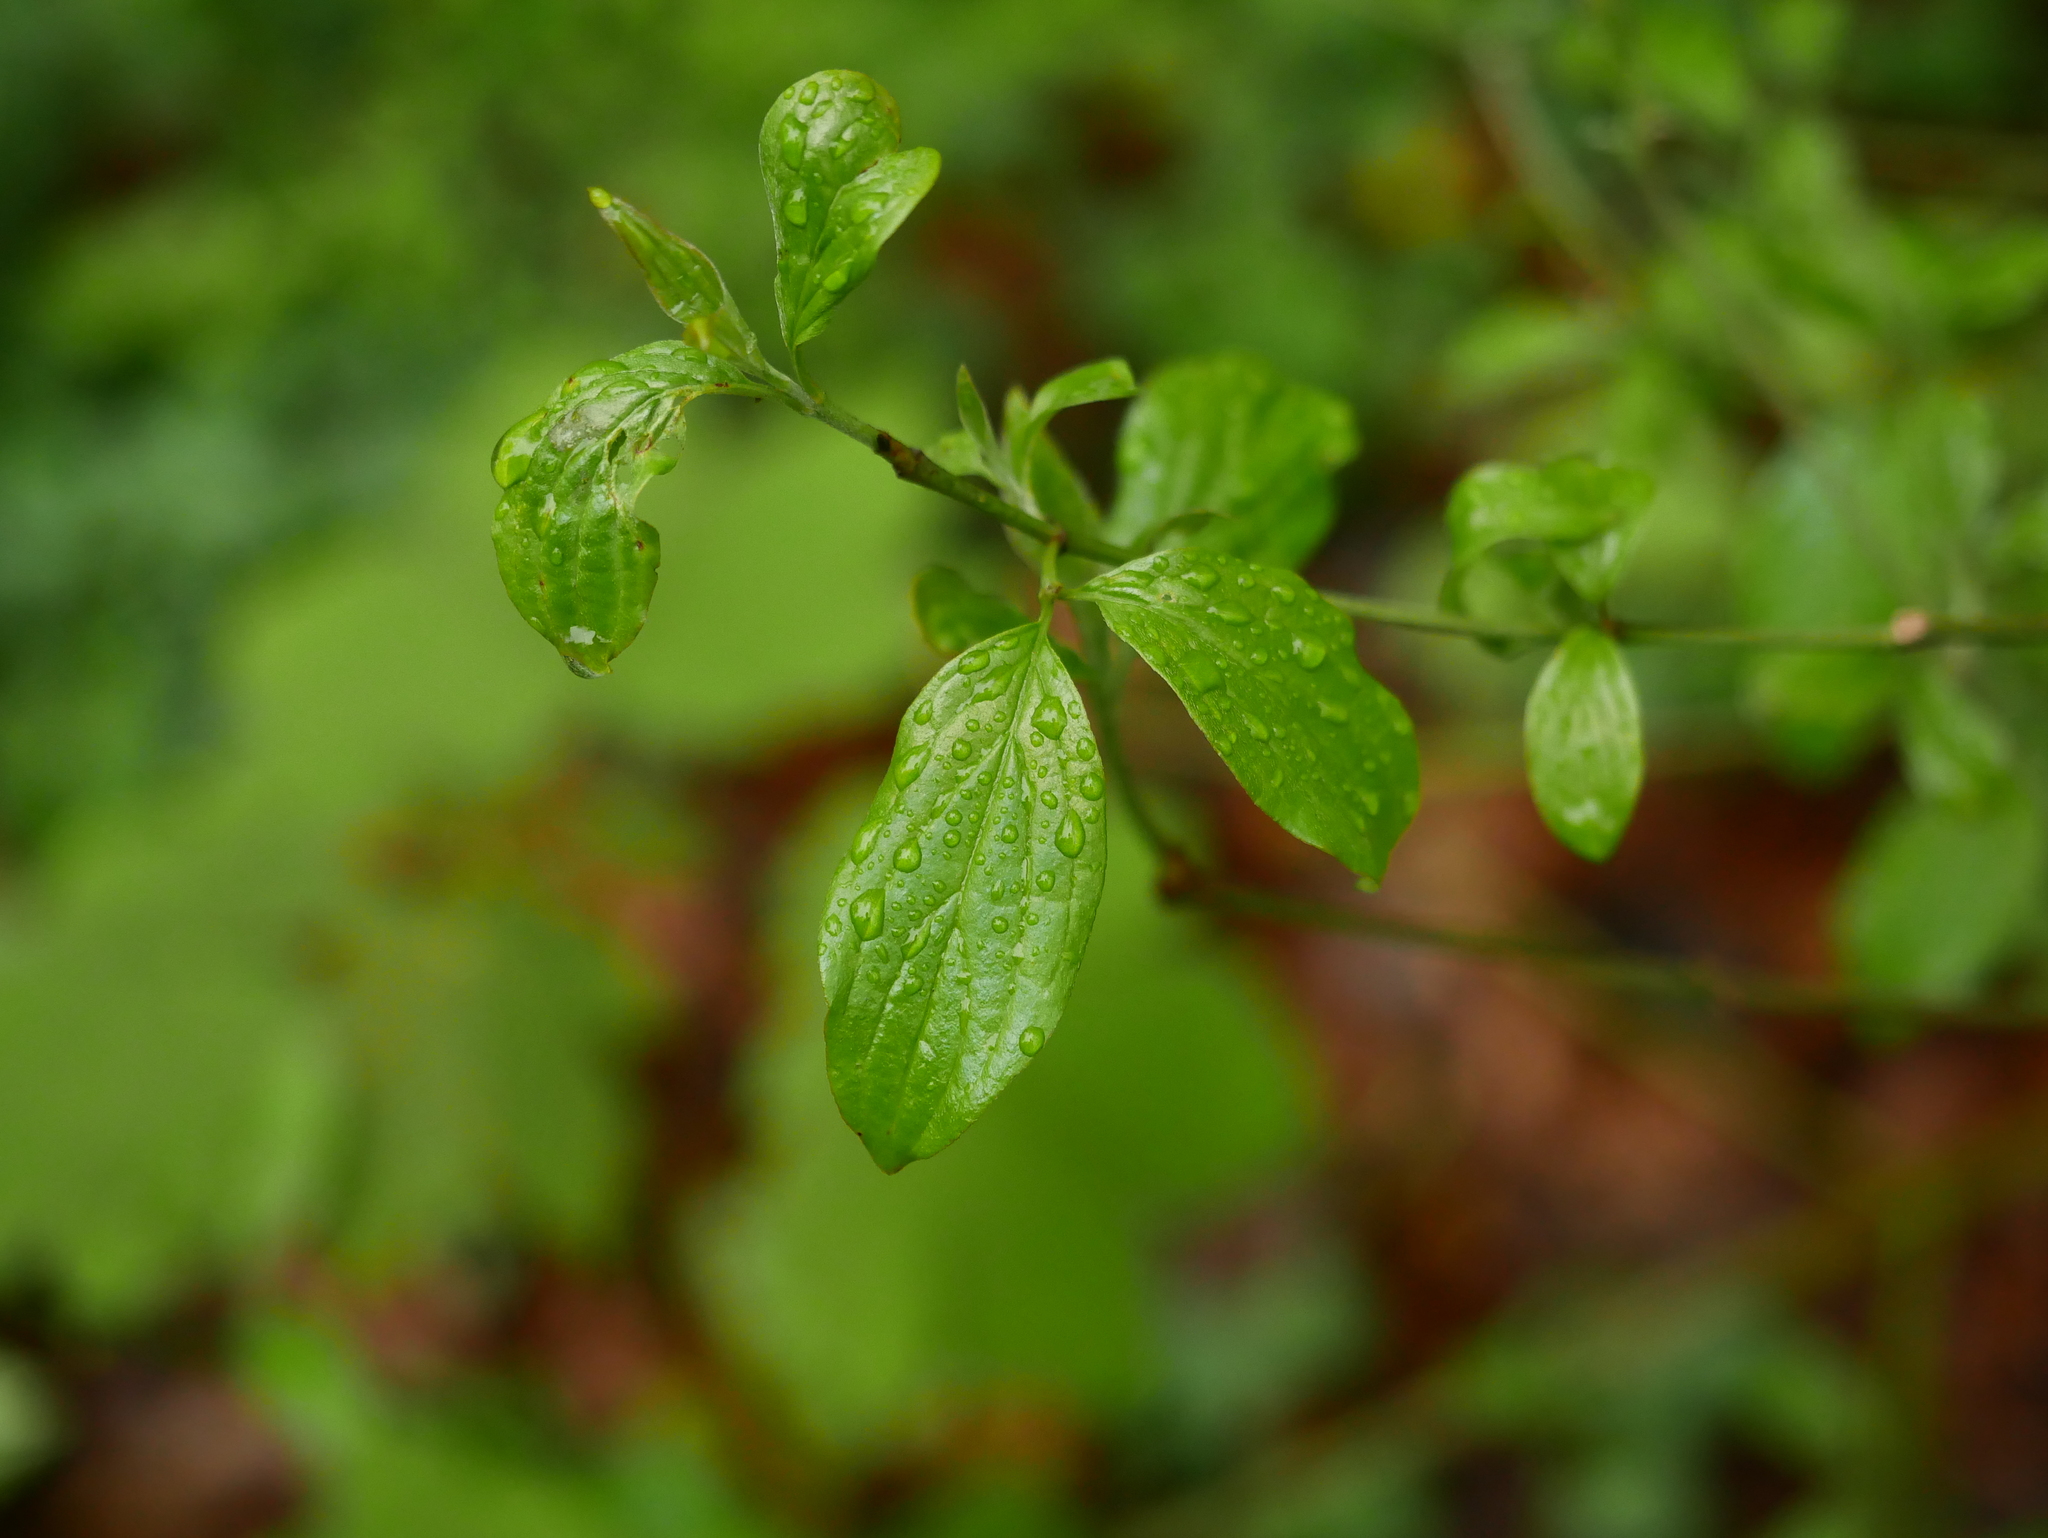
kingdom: Plantae
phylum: Tracheophyta
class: Magnoliopsida
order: Cornales
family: Cornaceae
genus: Cornus
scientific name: Cornus sanguinea
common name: Dogwood
